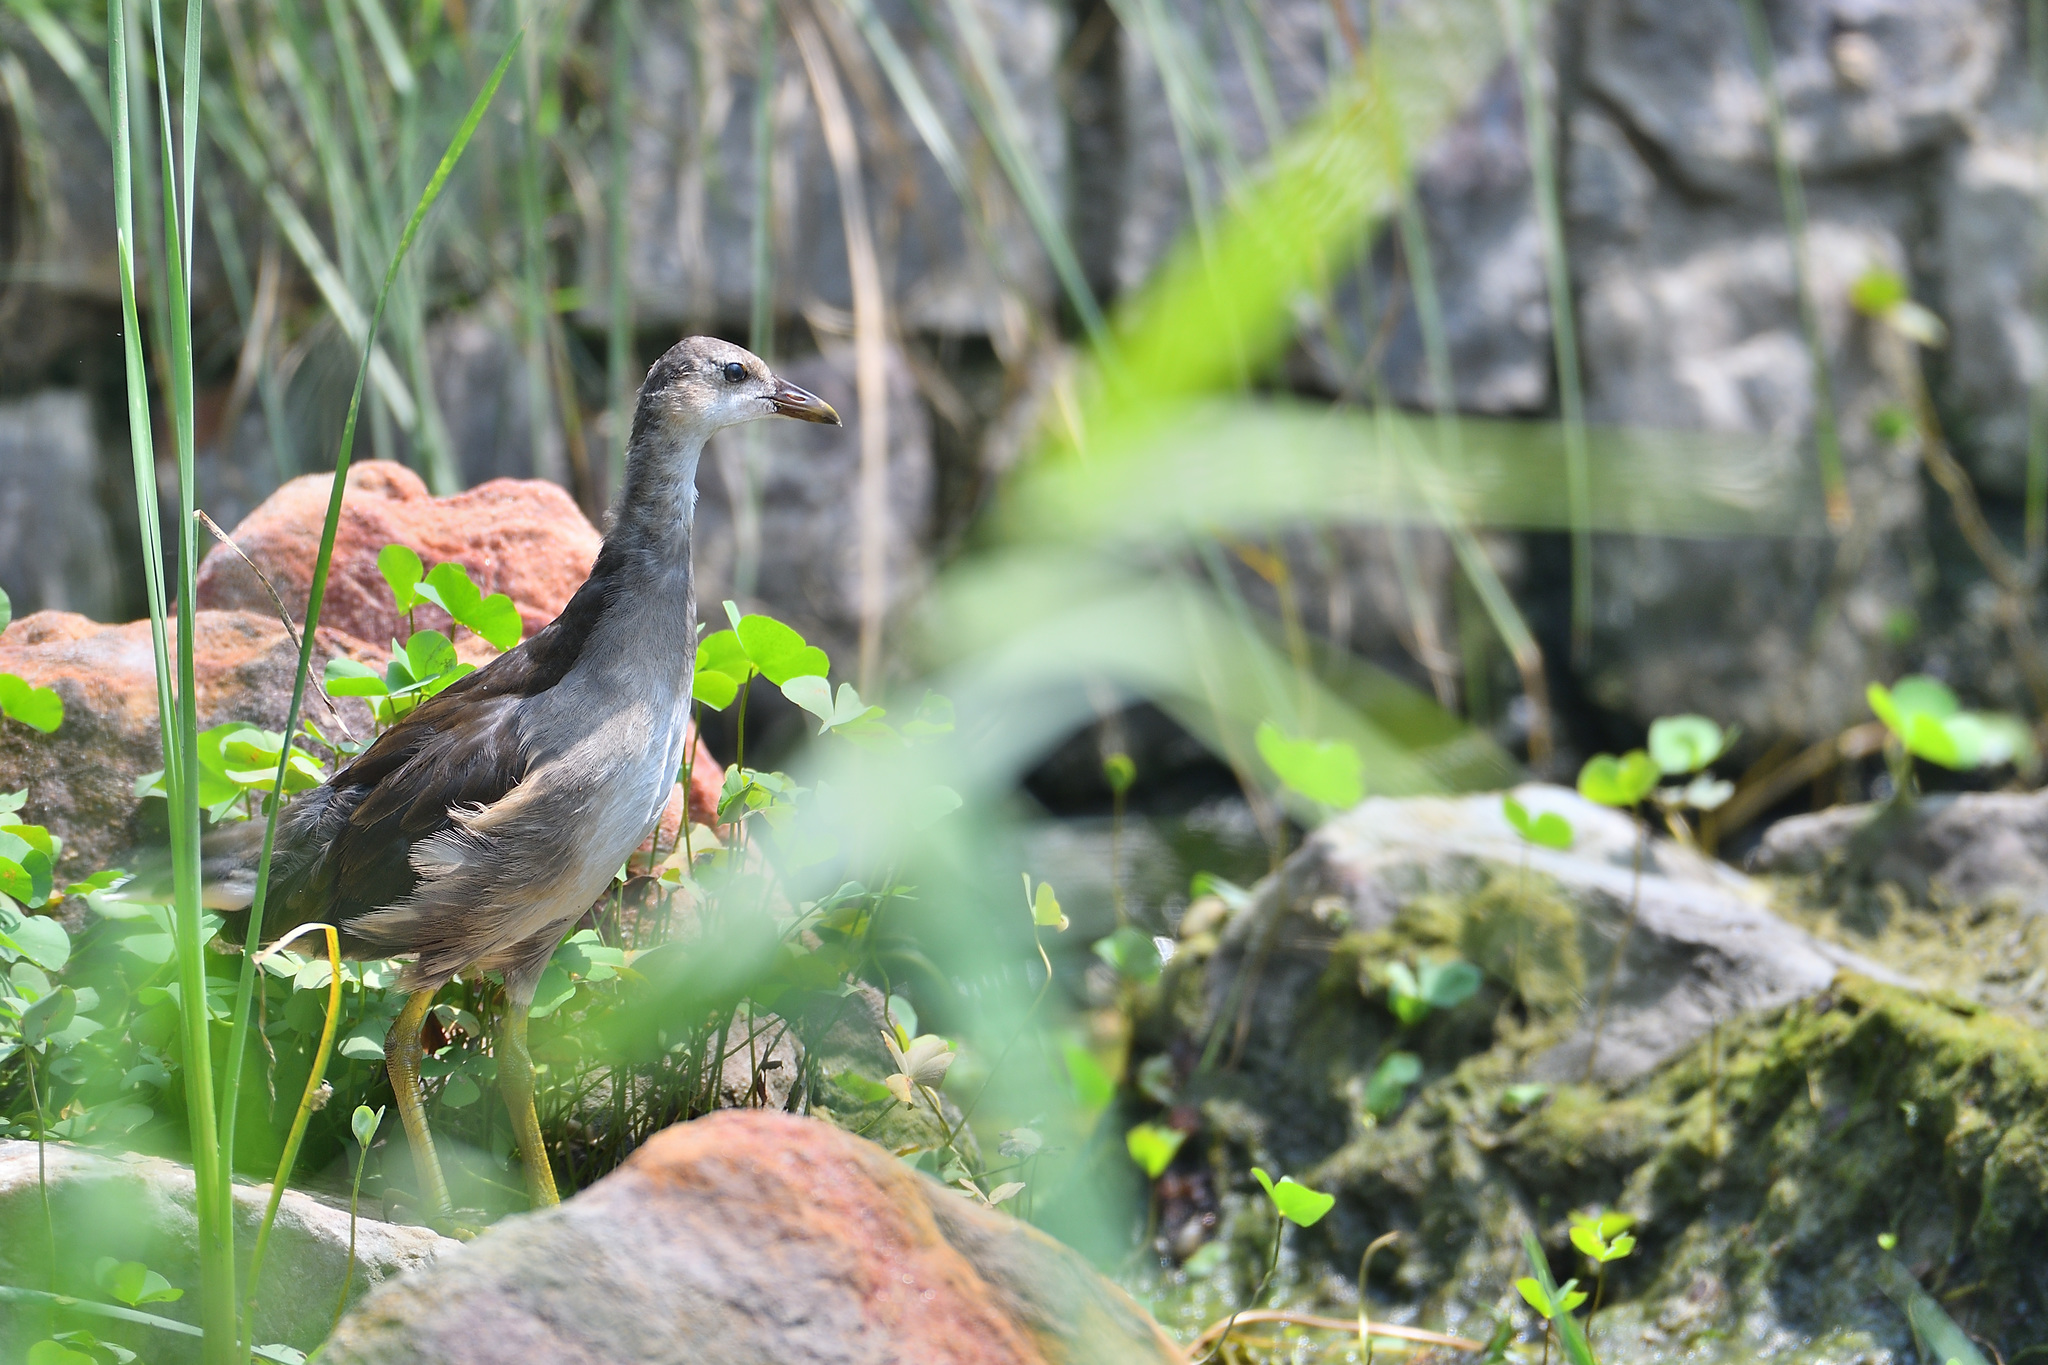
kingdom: Animalia
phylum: Chordata
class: Aves
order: Gruiformes
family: Rallidae
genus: Amaurornis
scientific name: Amaurornis phoenicurus
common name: White-breasted waterhen
